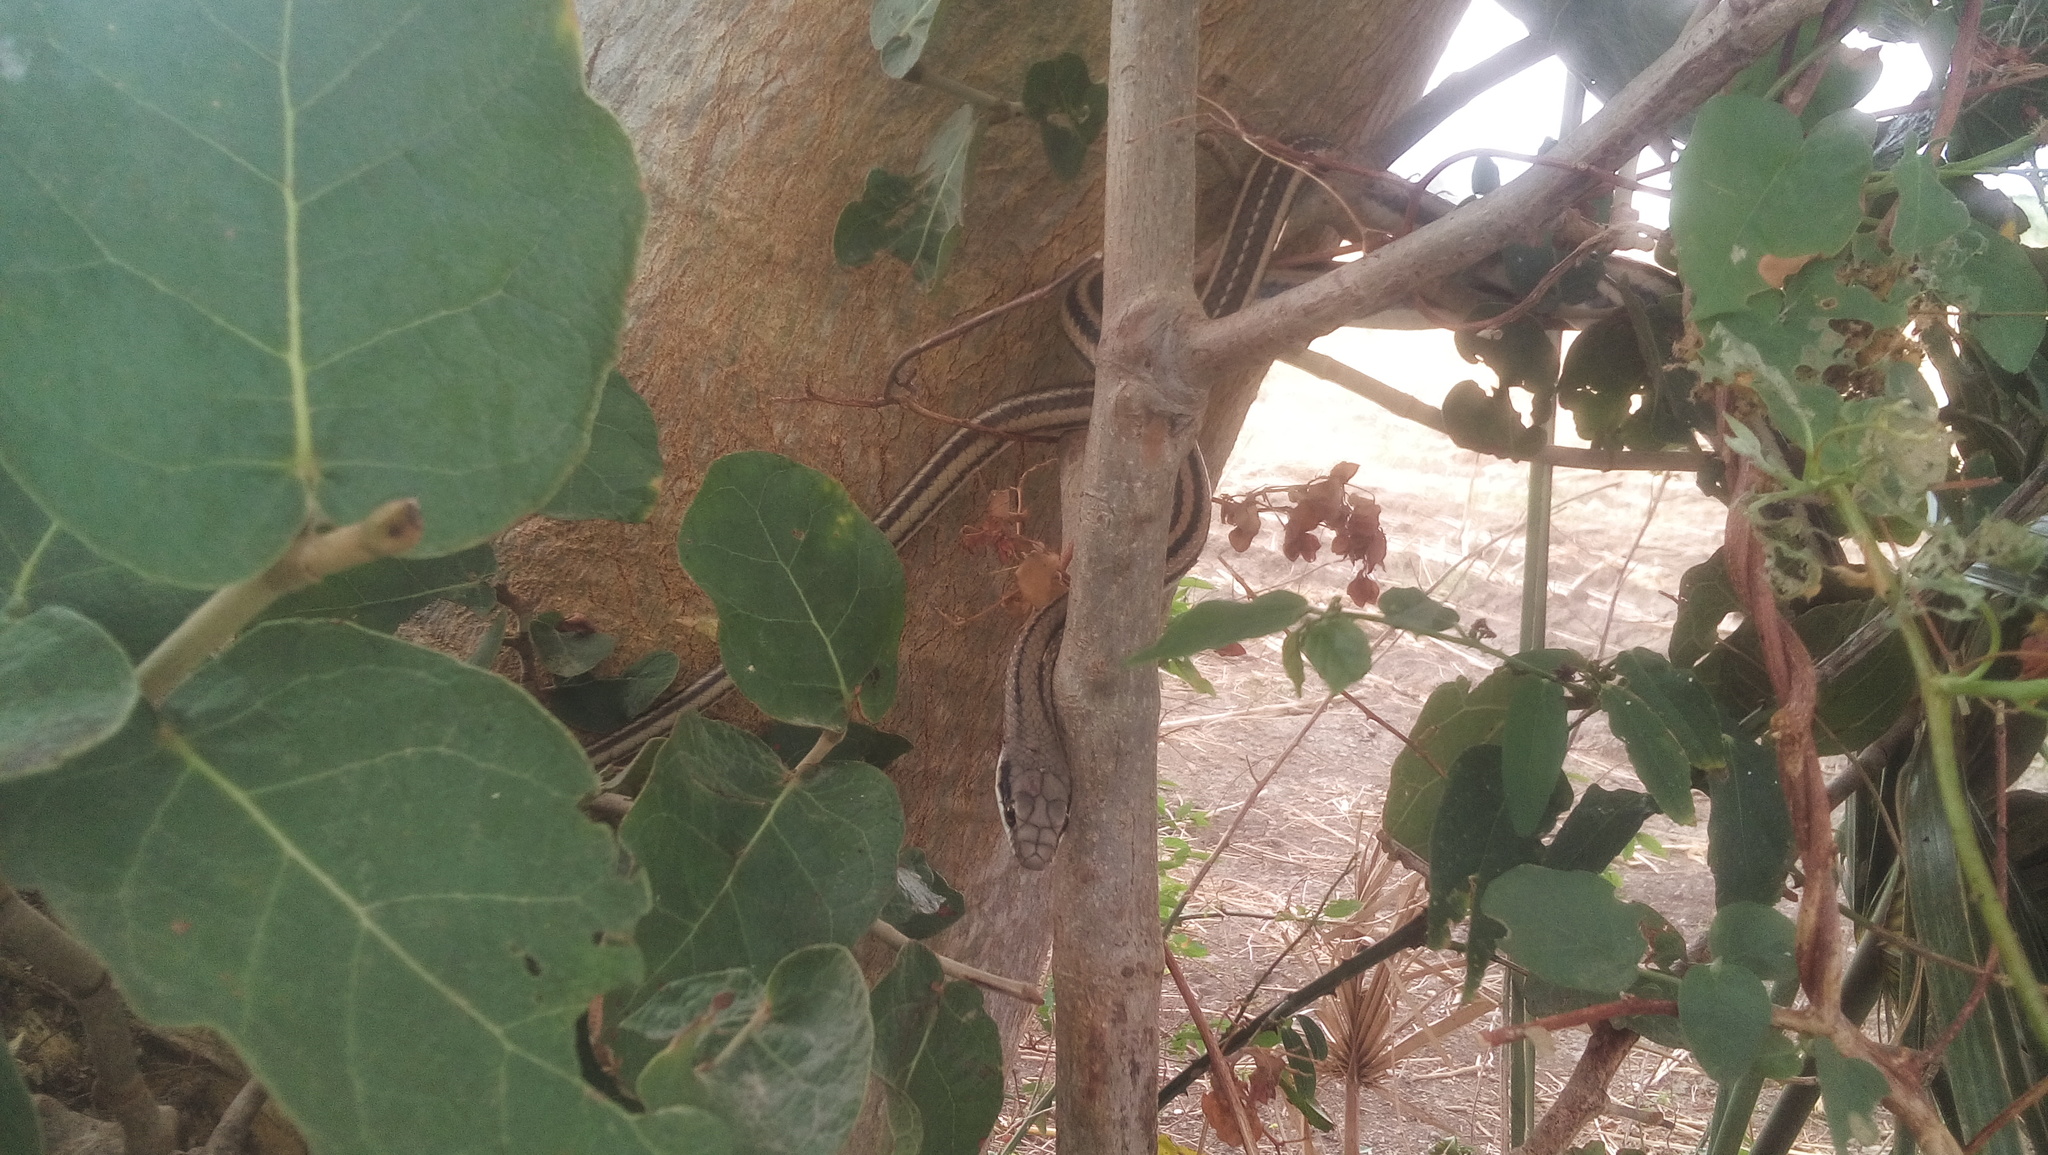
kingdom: Animalia
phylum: Chordata
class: Squamata
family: Colubridae
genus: Salvadora
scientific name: Salvadora lemniscata
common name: Pacific patchnose snake
